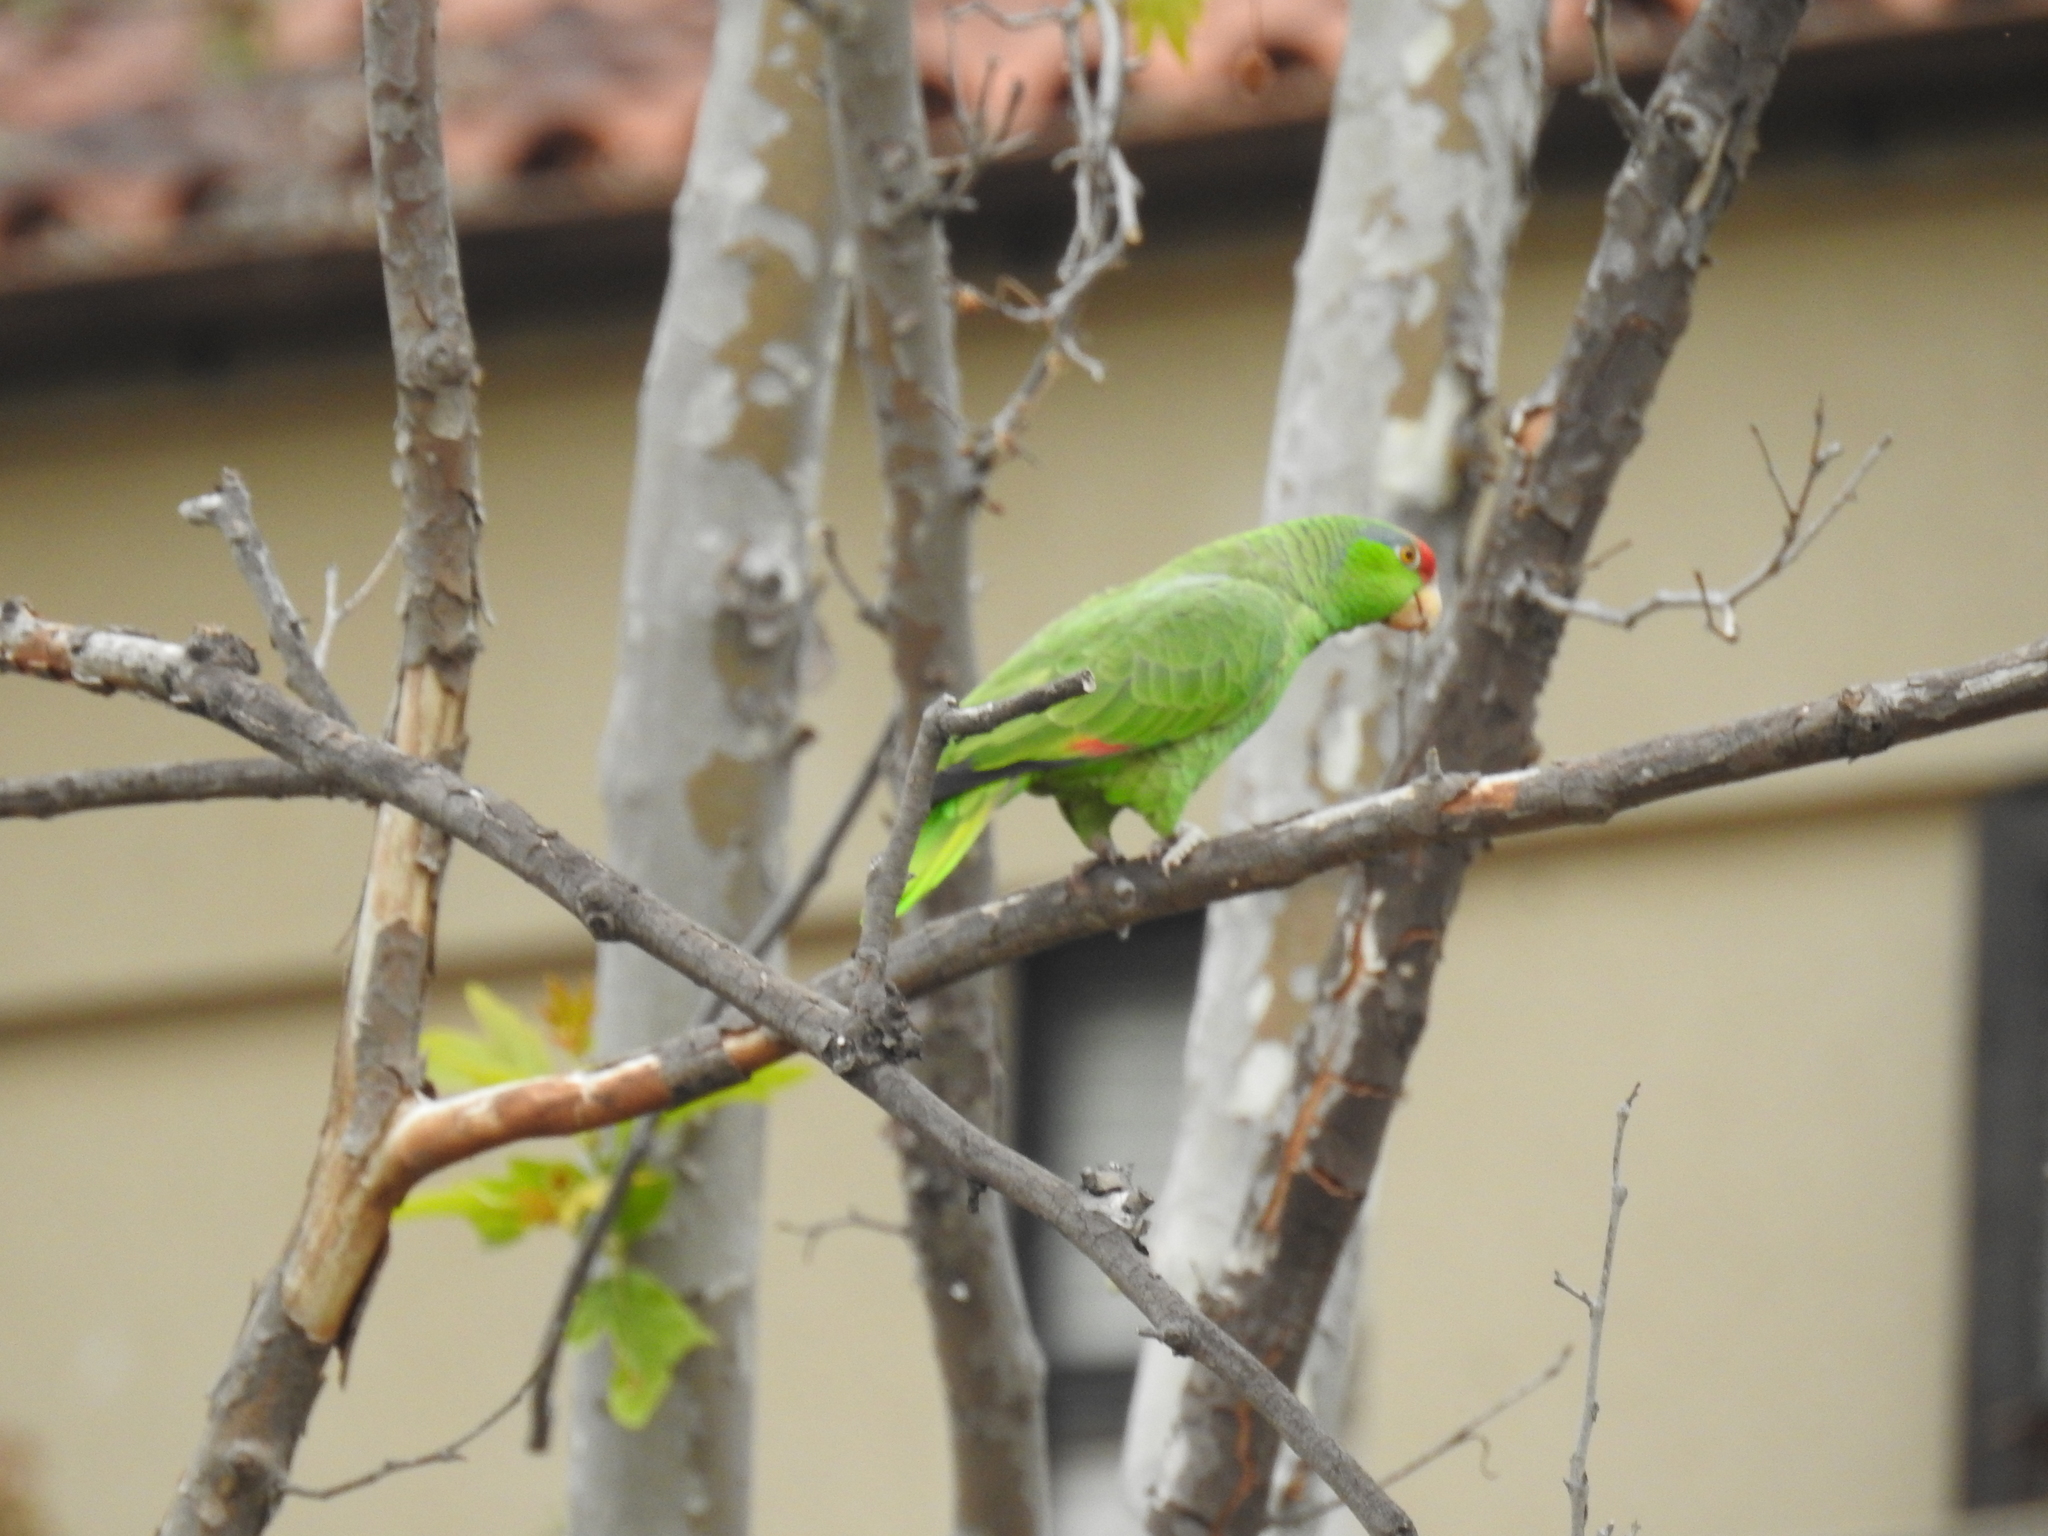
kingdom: Animalia
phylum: Chordata
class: Aves
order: Psittaciformes
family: Psittacidae
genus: Amazona
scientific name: Amazona viridigenalis
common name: Red-crowned amazon
